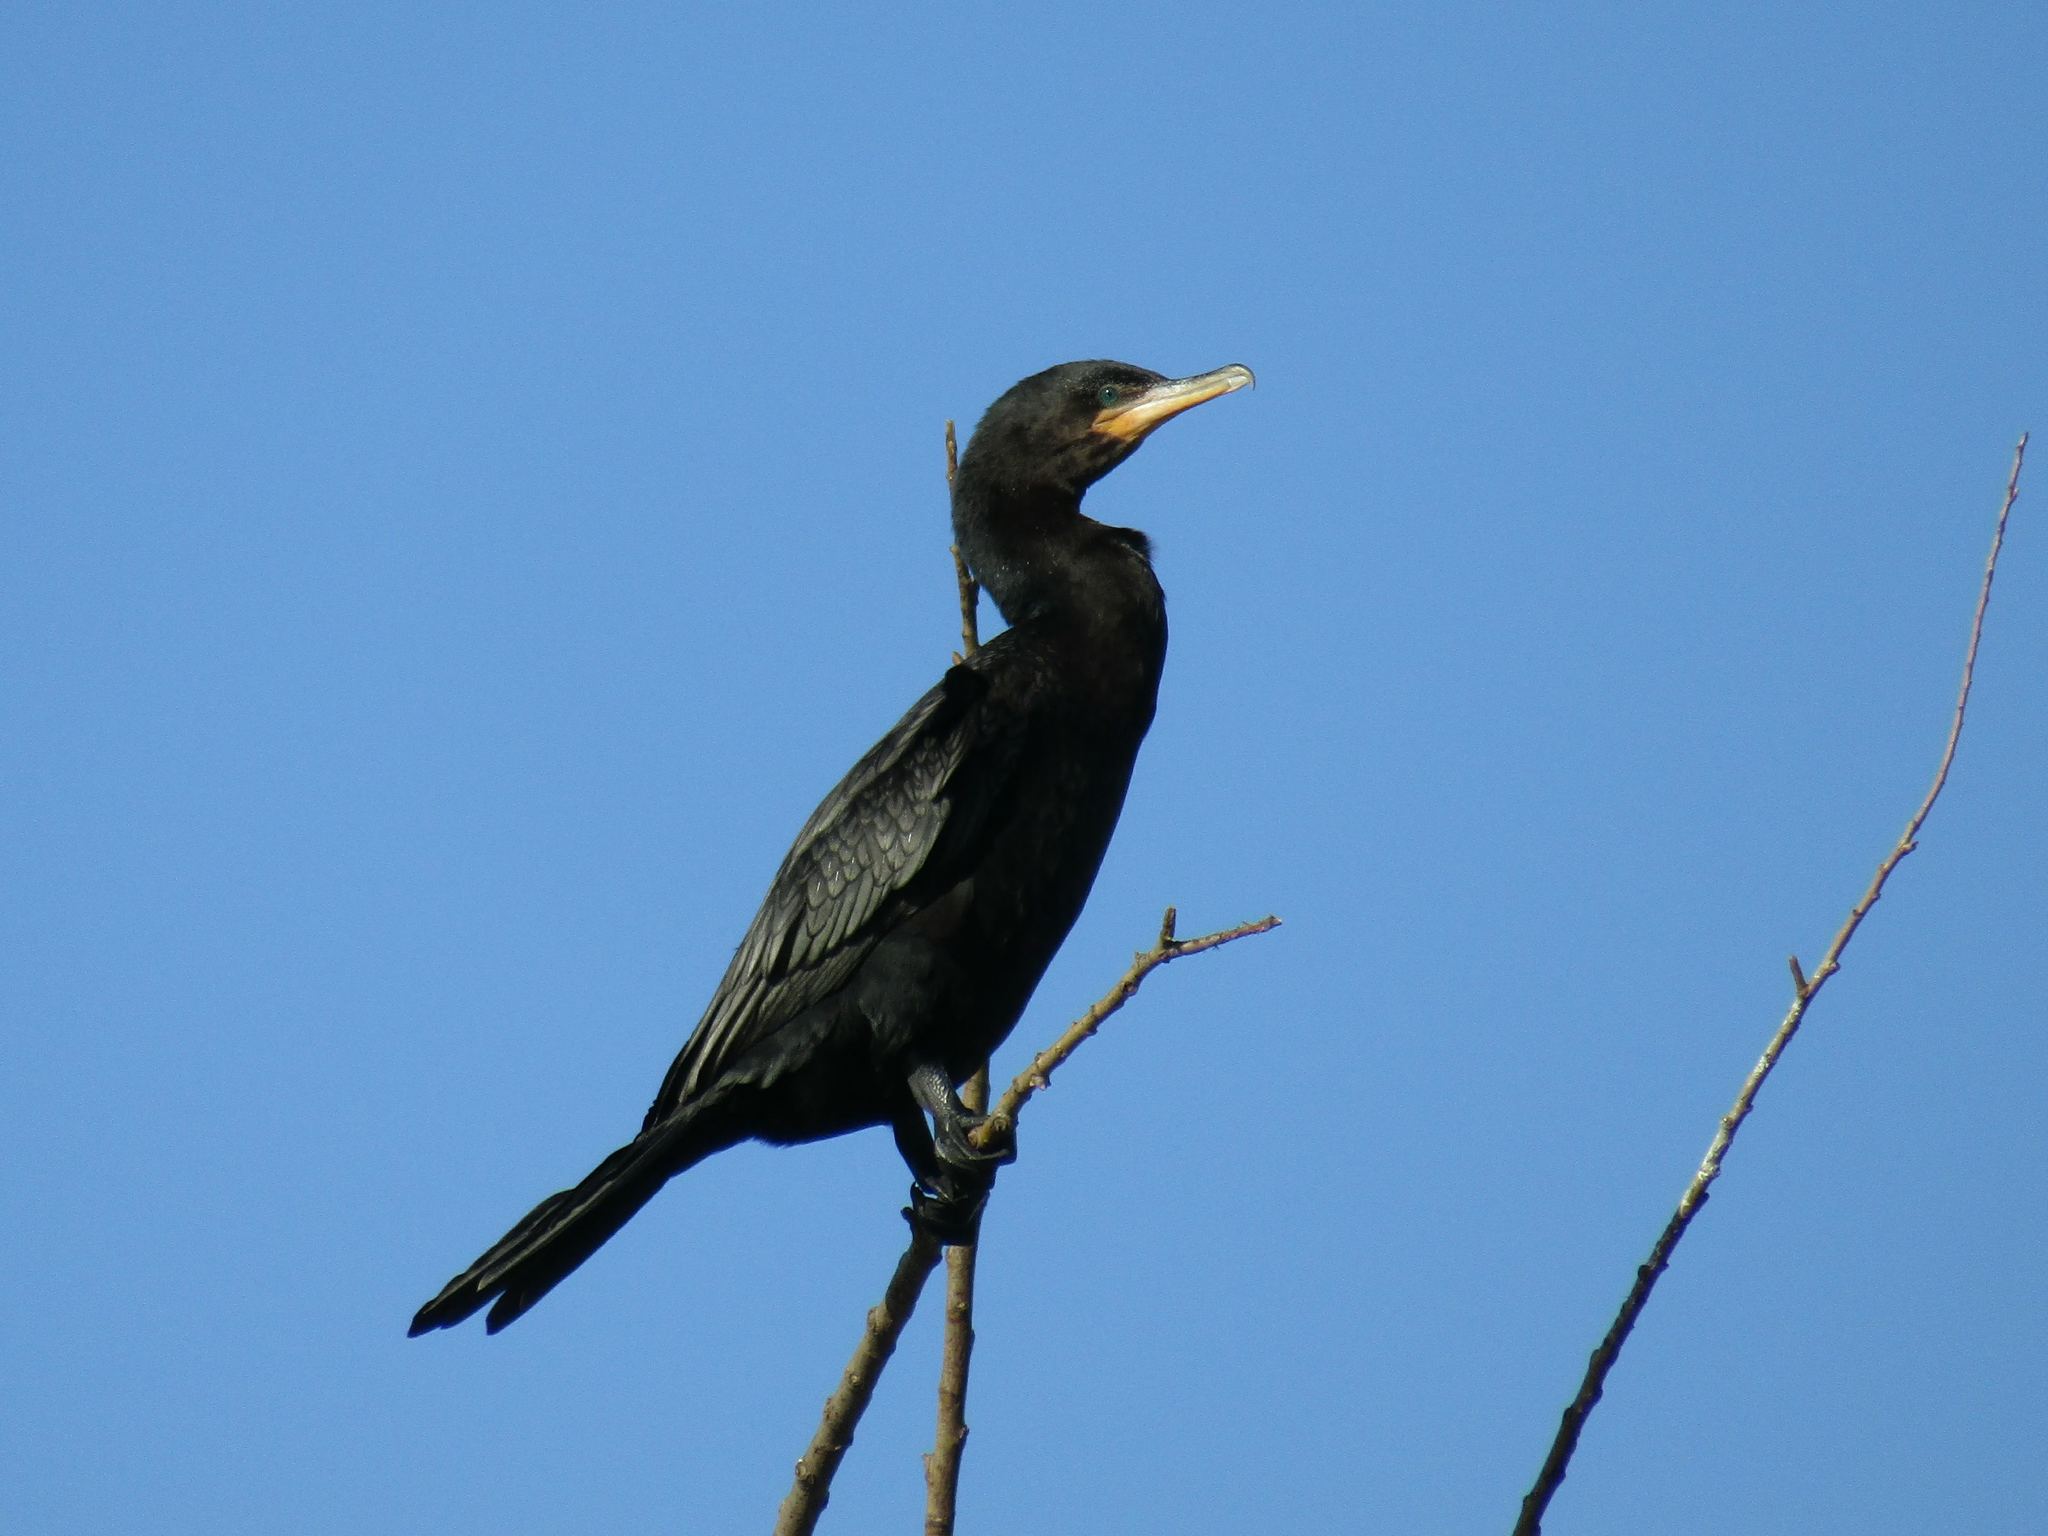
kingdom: Animalia
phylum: Chordata
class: Aves
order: Suliformes
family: Phalacrocoracidae
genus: Phalacrocorax
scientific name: Phalacrocorax brasilianus
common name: Neotropic cormorant
